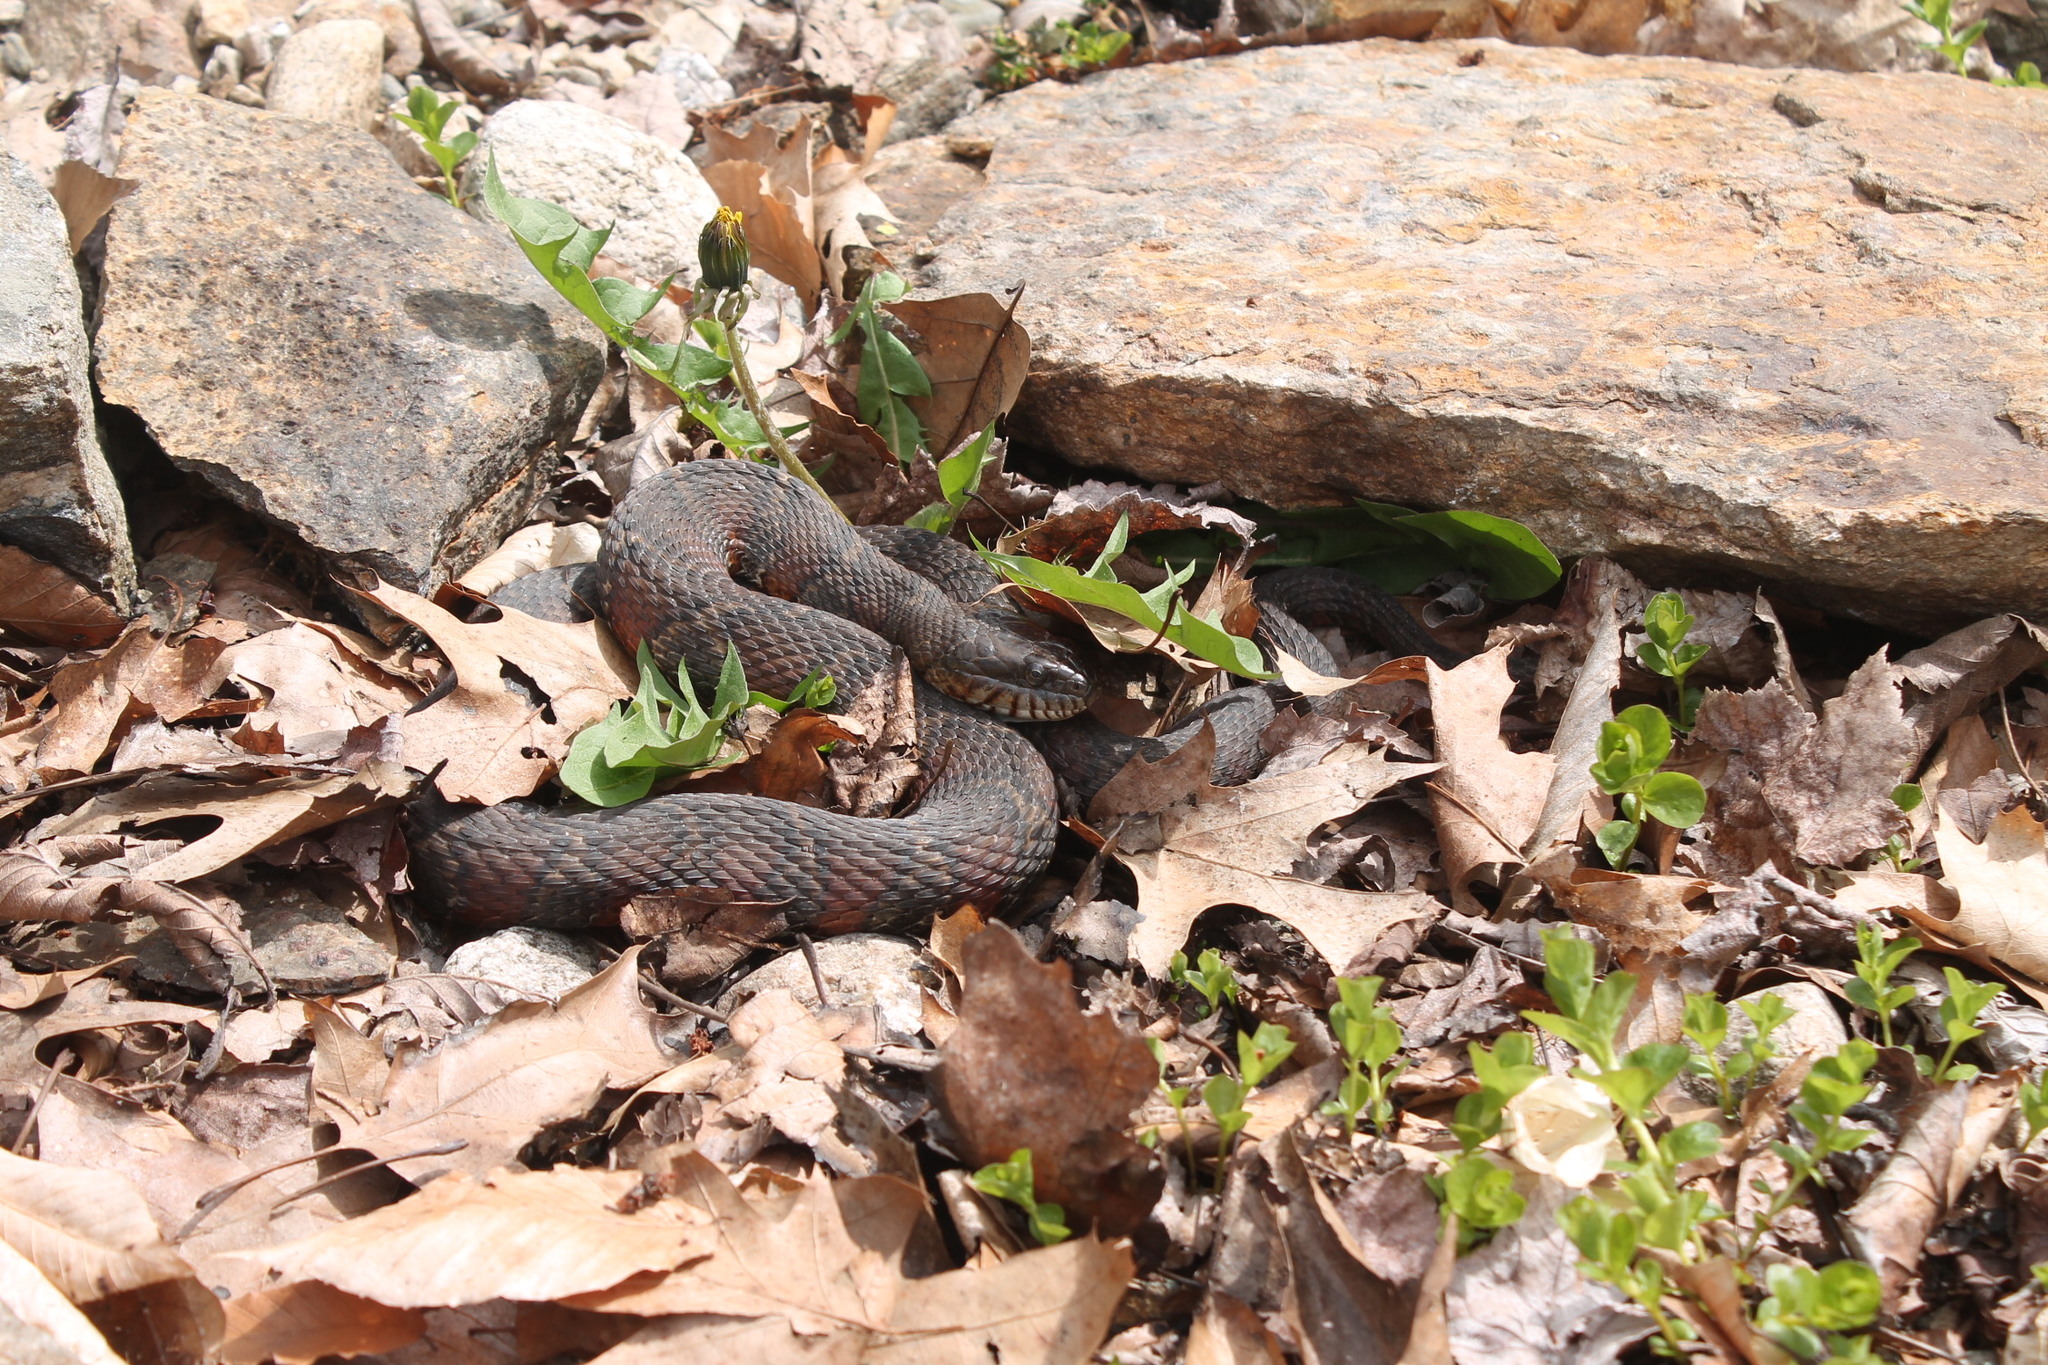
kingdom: Animalia
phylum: Chordata
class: Squamata
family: Colubridae
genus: Nerodia
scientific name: Nerodia sipedon
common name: Northern water snake
